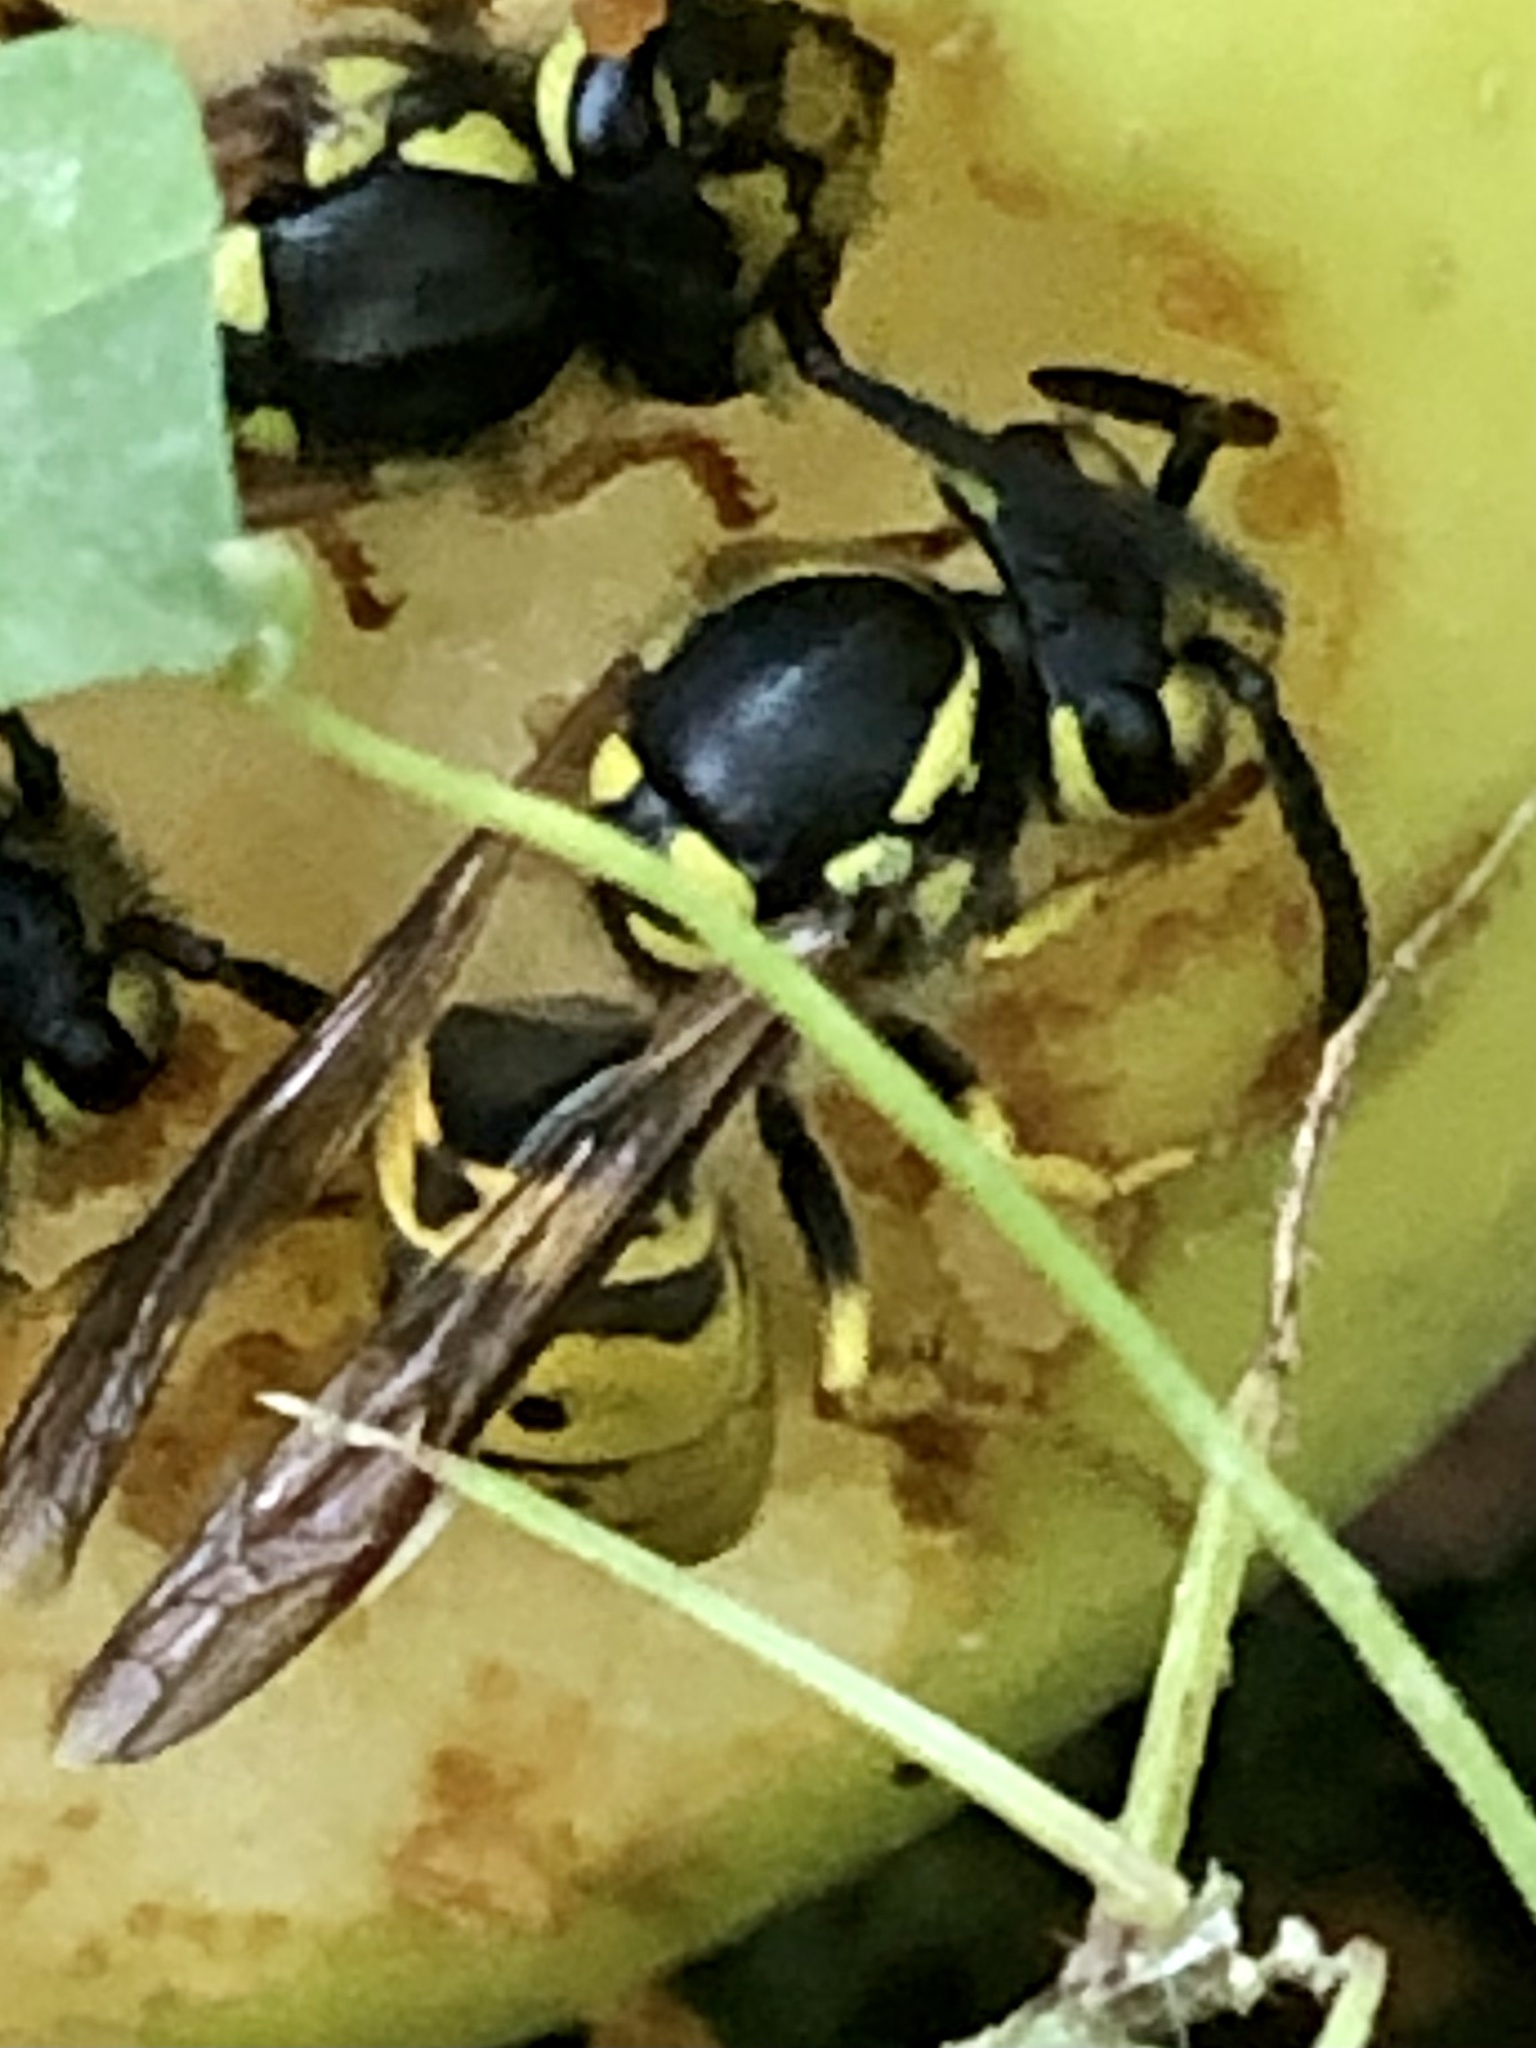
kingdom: Animalia
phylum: Arthropoda
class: Insecta
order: Hymenoptera
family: Vespidae
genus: Vespula
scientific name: Vespula germanica
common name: German wasp
